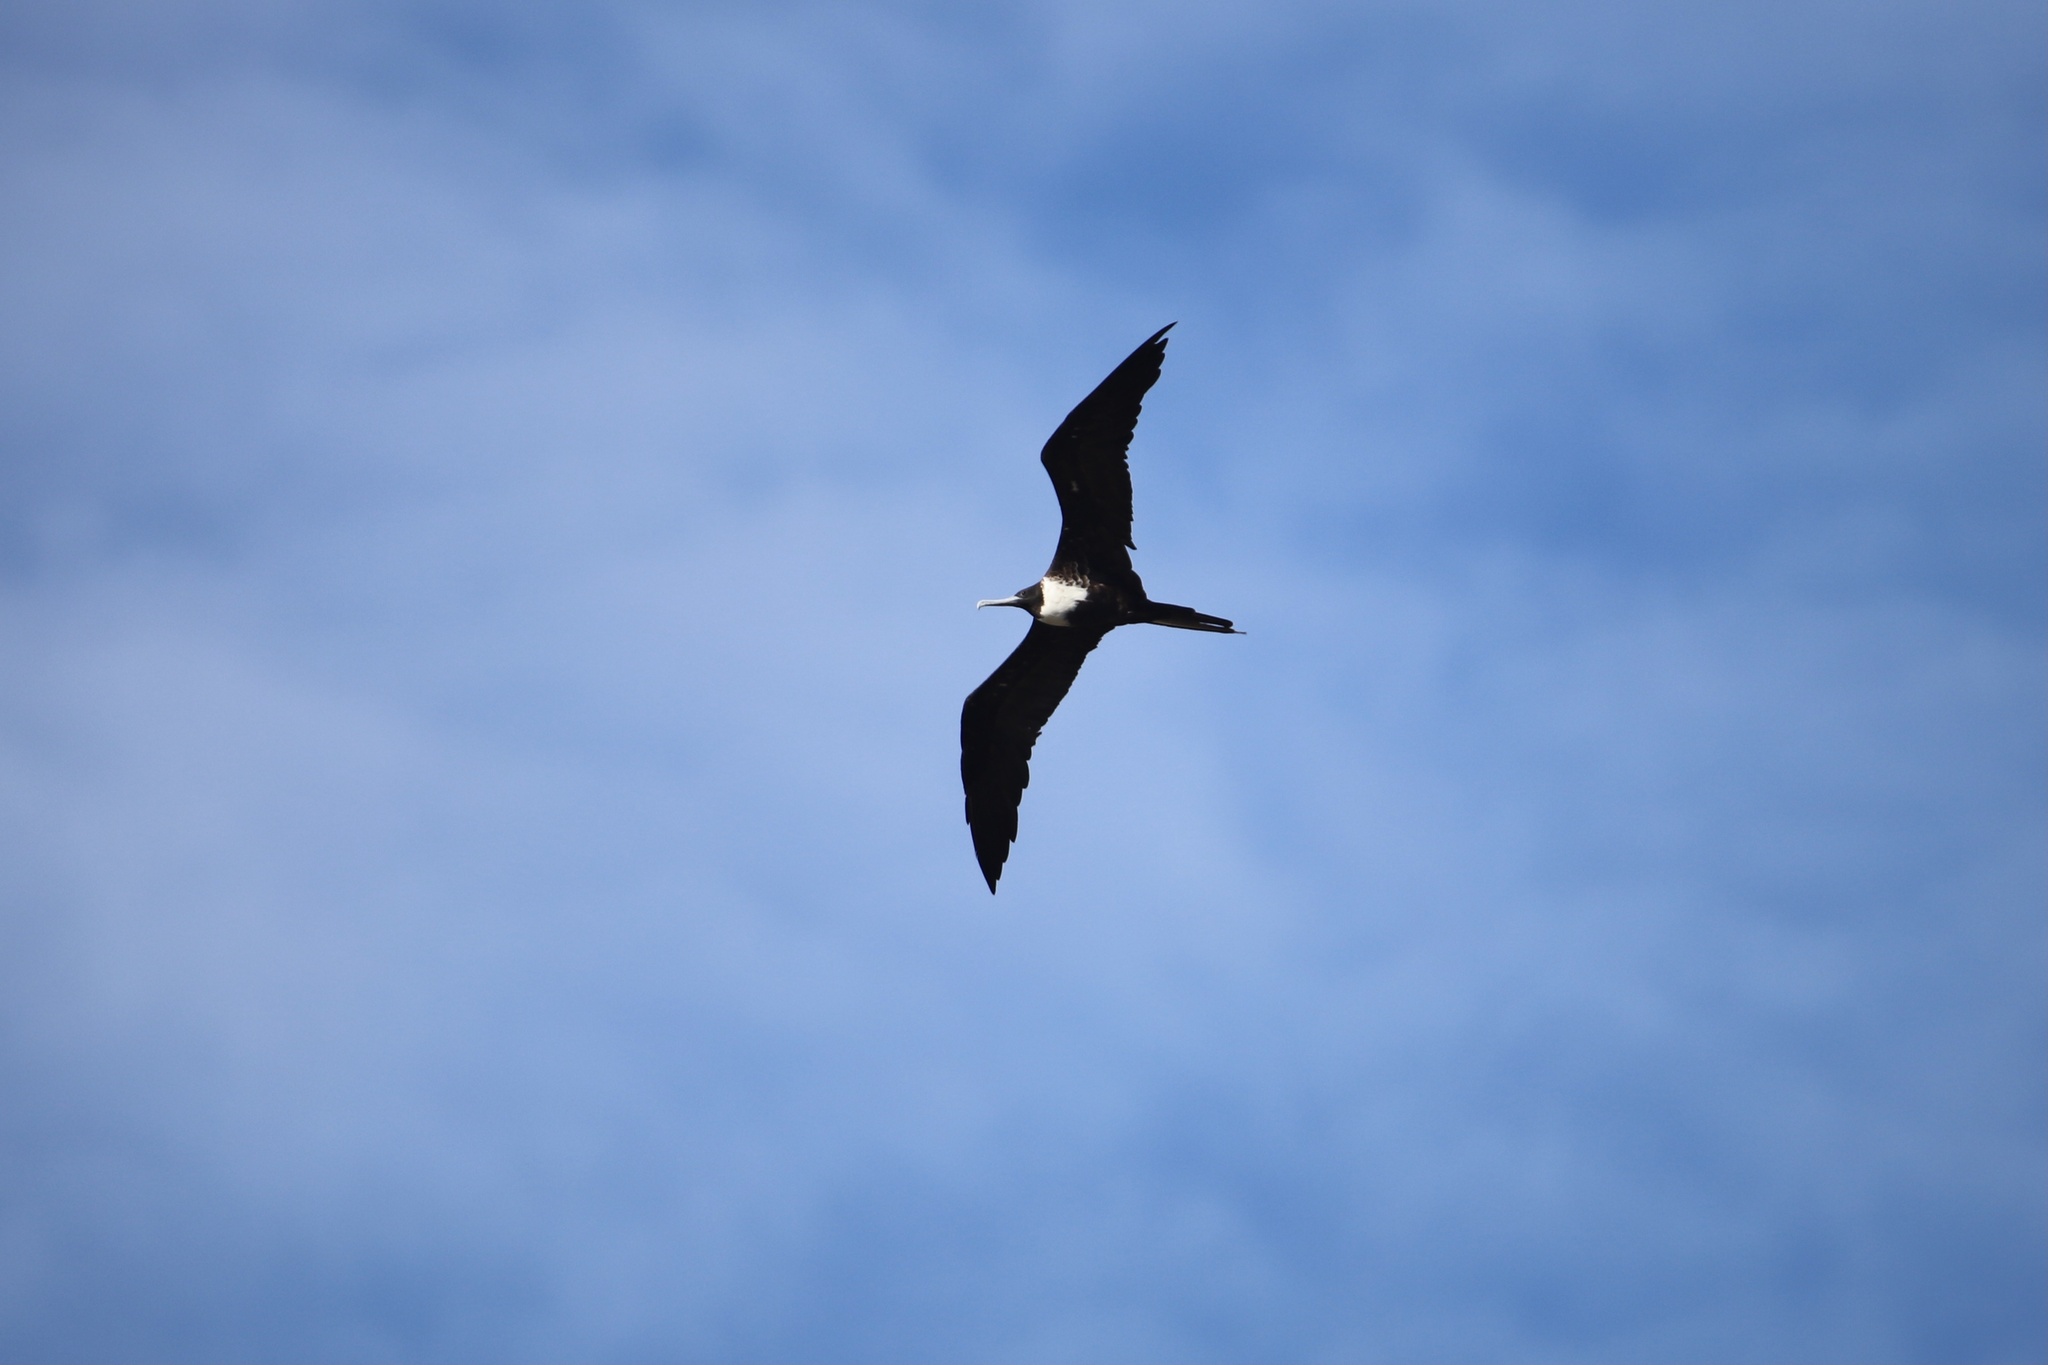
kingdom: Animalia
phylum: Chordata
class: Aves
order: Suliformes
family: Fregatidae
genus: Fregata
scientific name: Fregata magnificens
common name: Magnificent frigatebird
